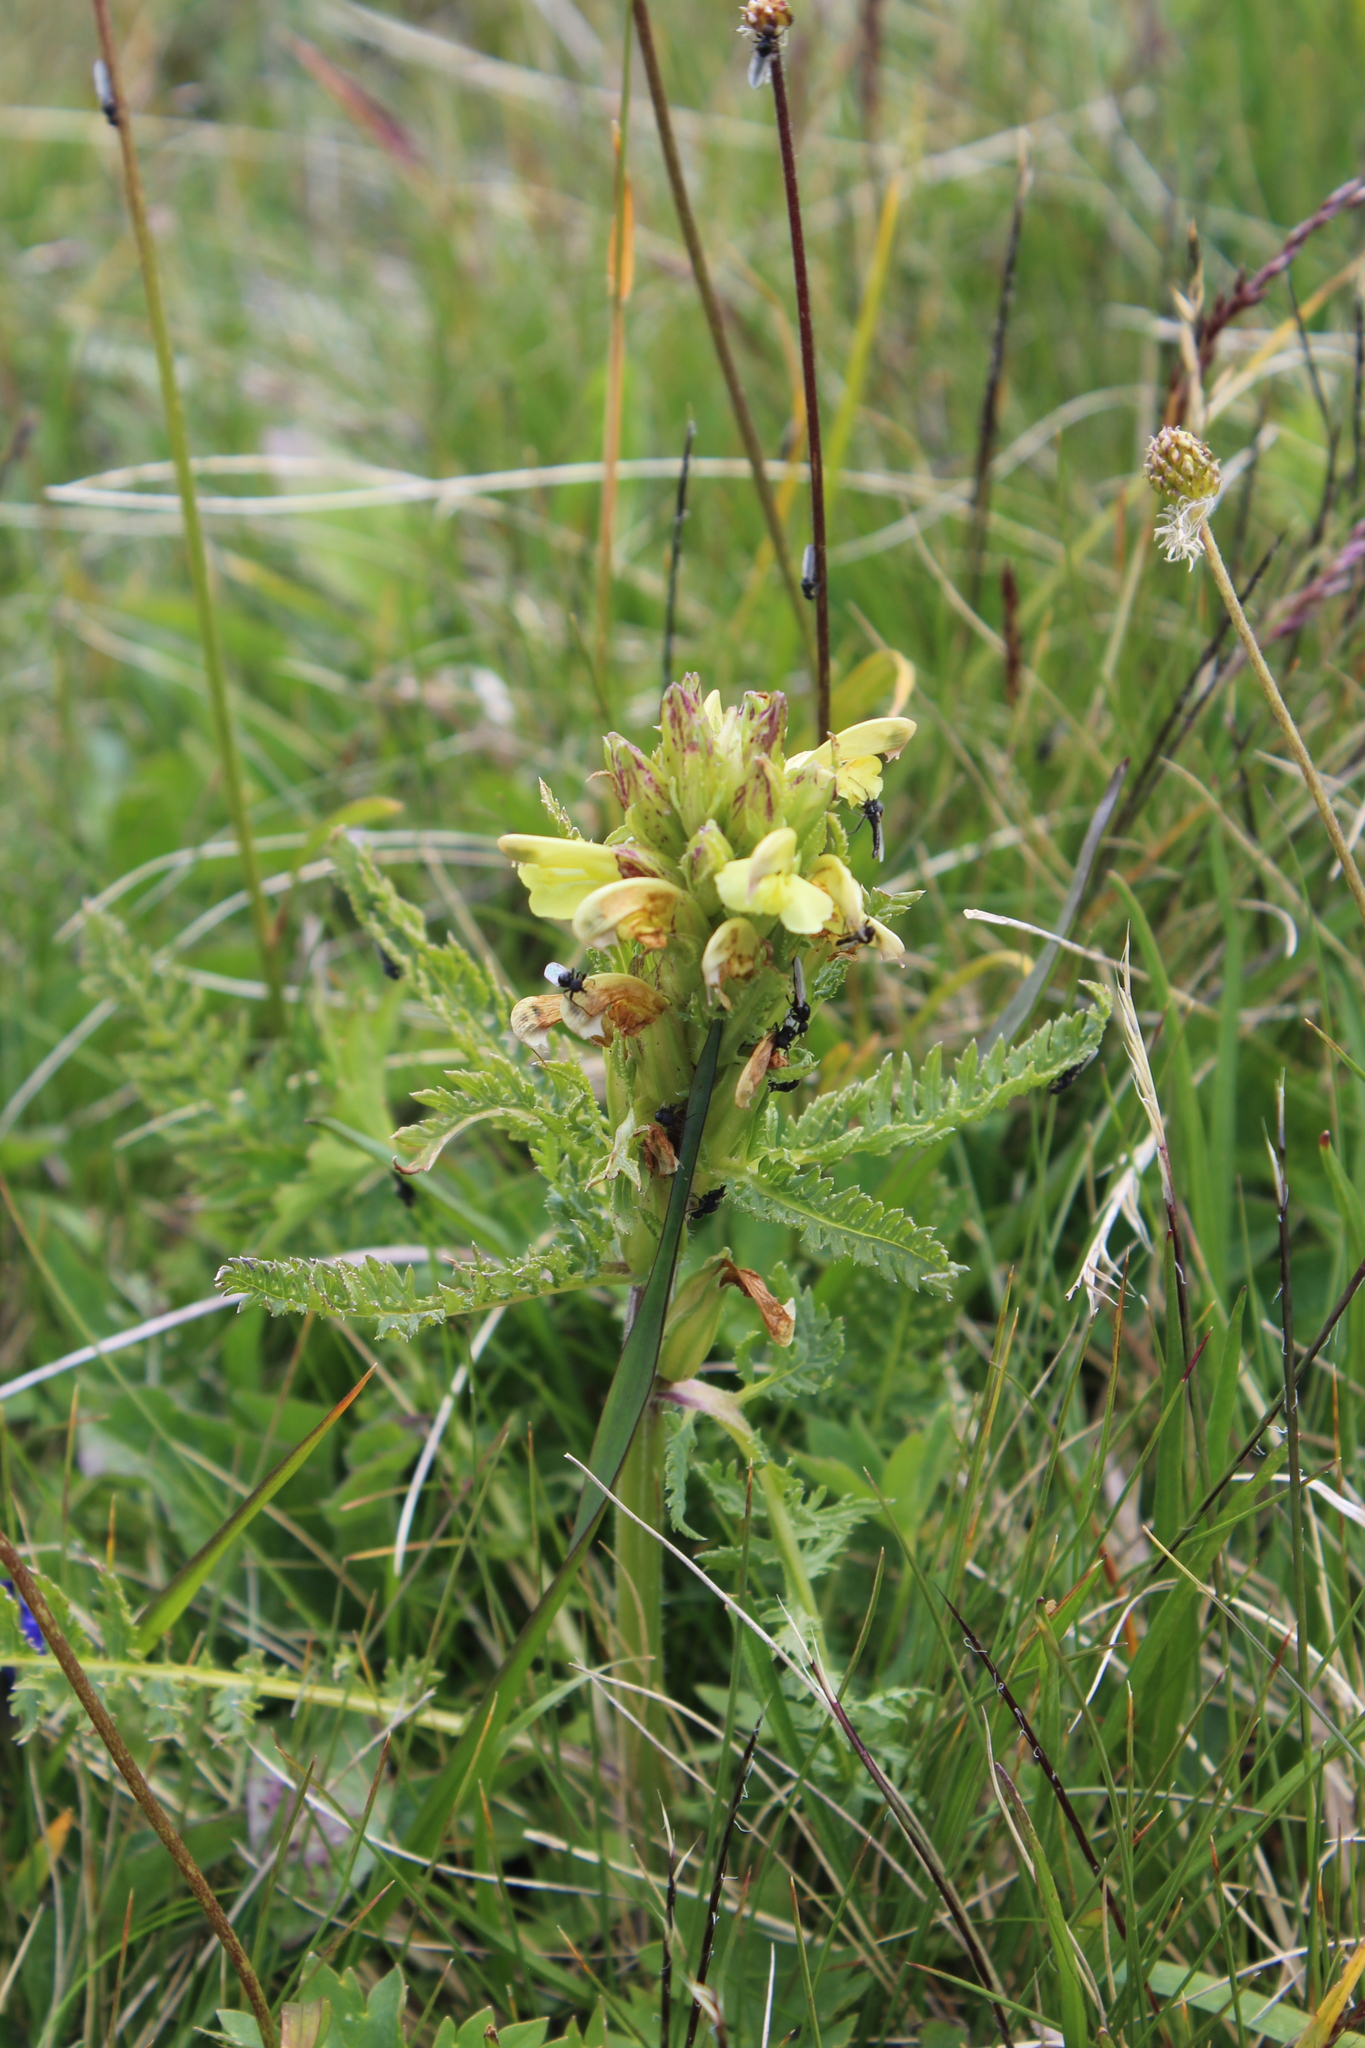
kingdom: Plantae
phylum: Tracheophyta
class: Magnoliopsida
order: Lamiales
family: Orobanchaceae
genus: Pedicularis
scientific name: Pedicularis sibthorpii
